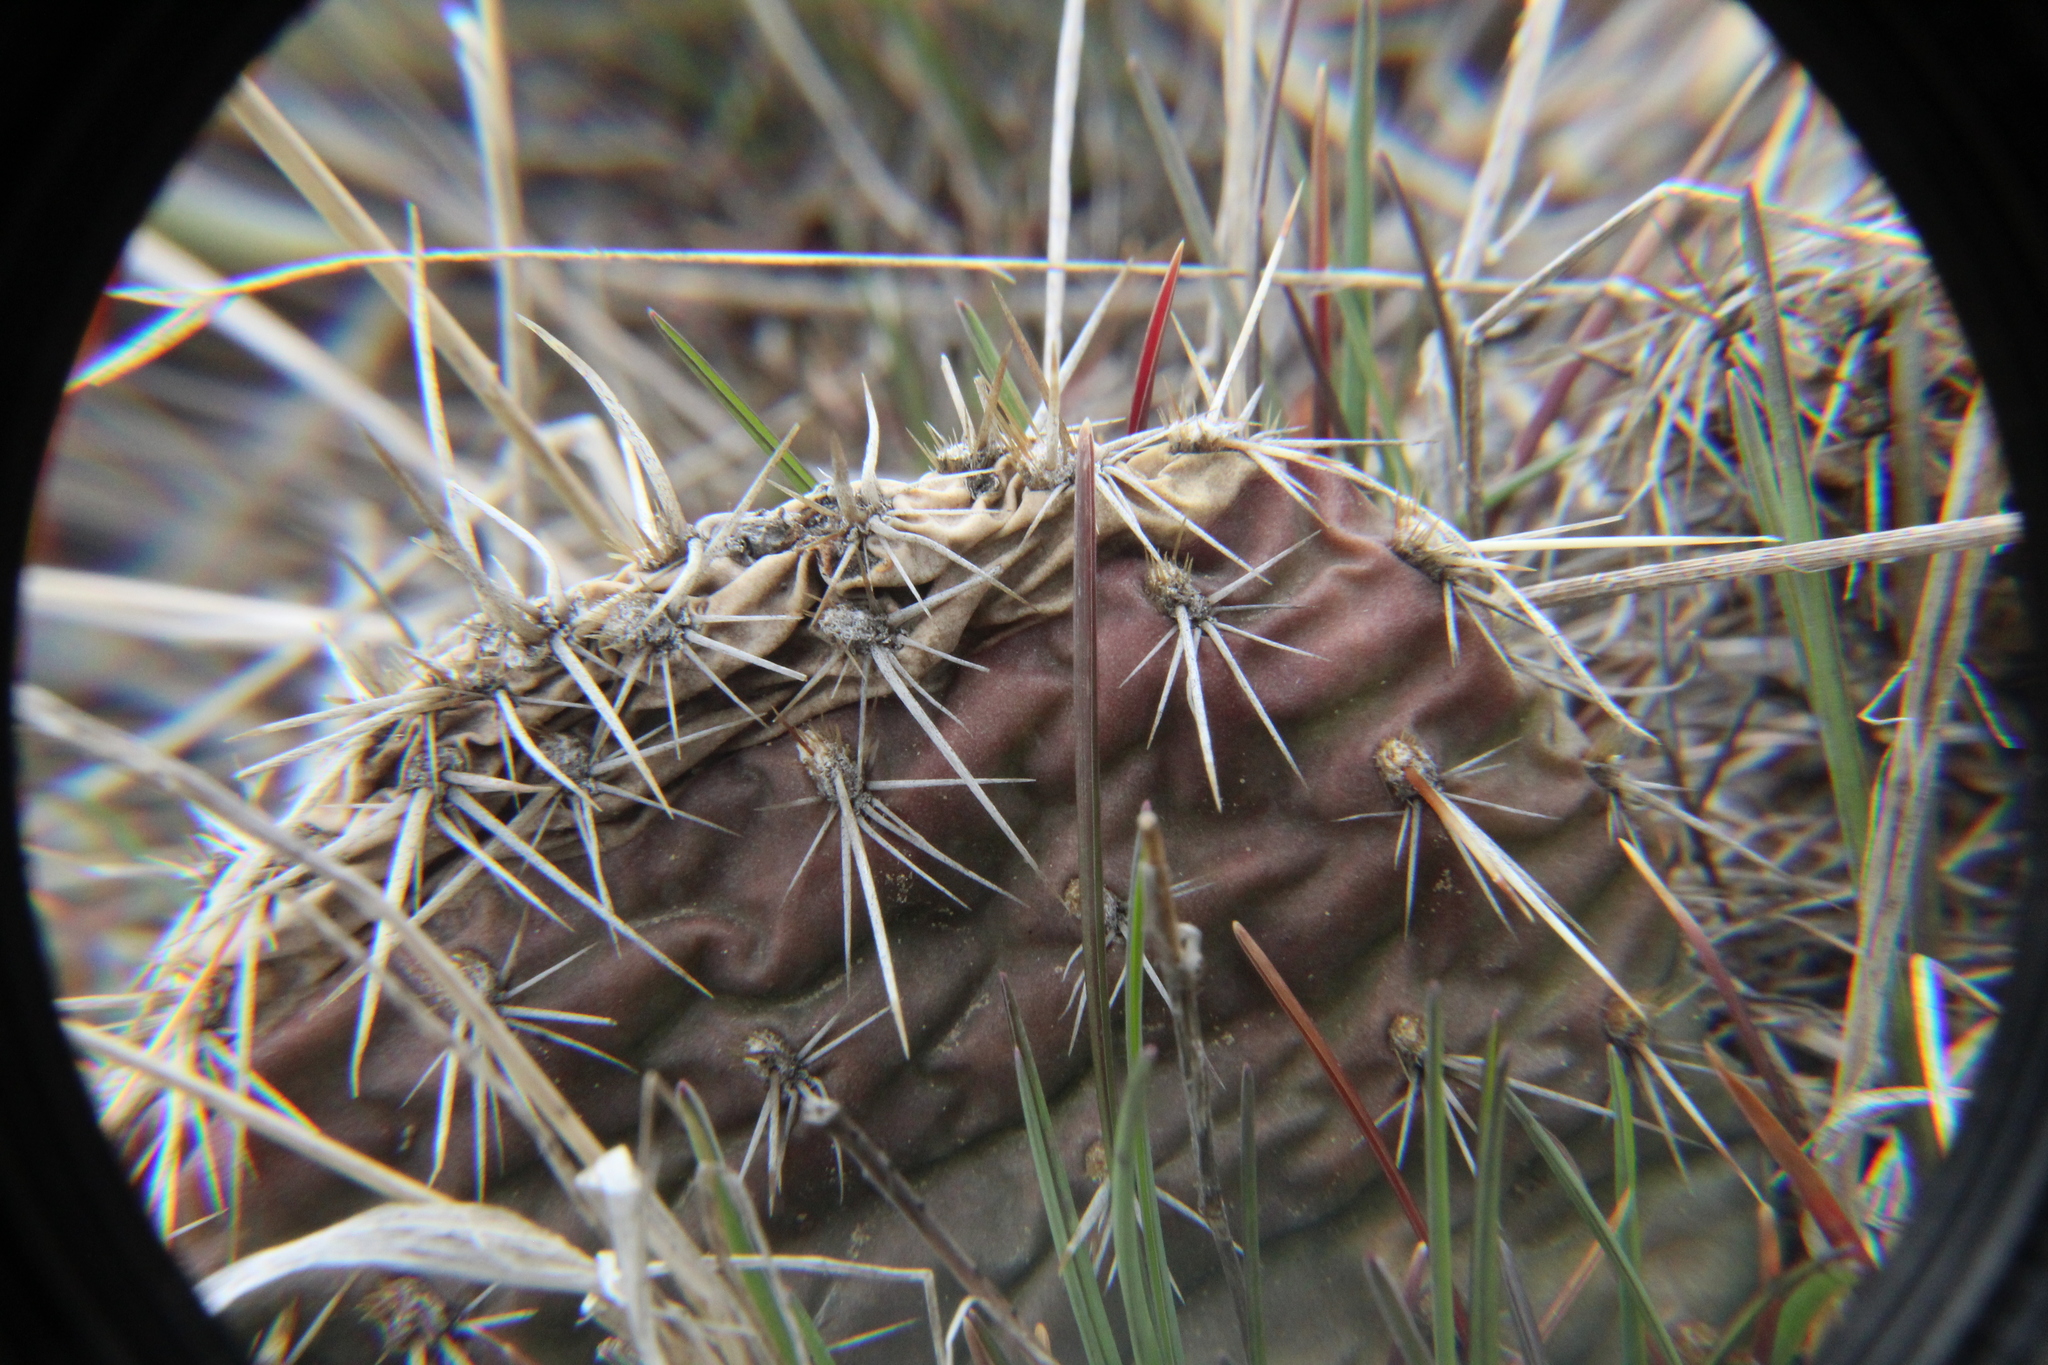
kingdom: Plantae
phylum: Tracheophyta
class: Magnoliopsida
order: Caryophyllales
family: Cactaceae
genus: Opuntia
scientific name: Opuntia polyacantha
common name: Plains prickly-pear
